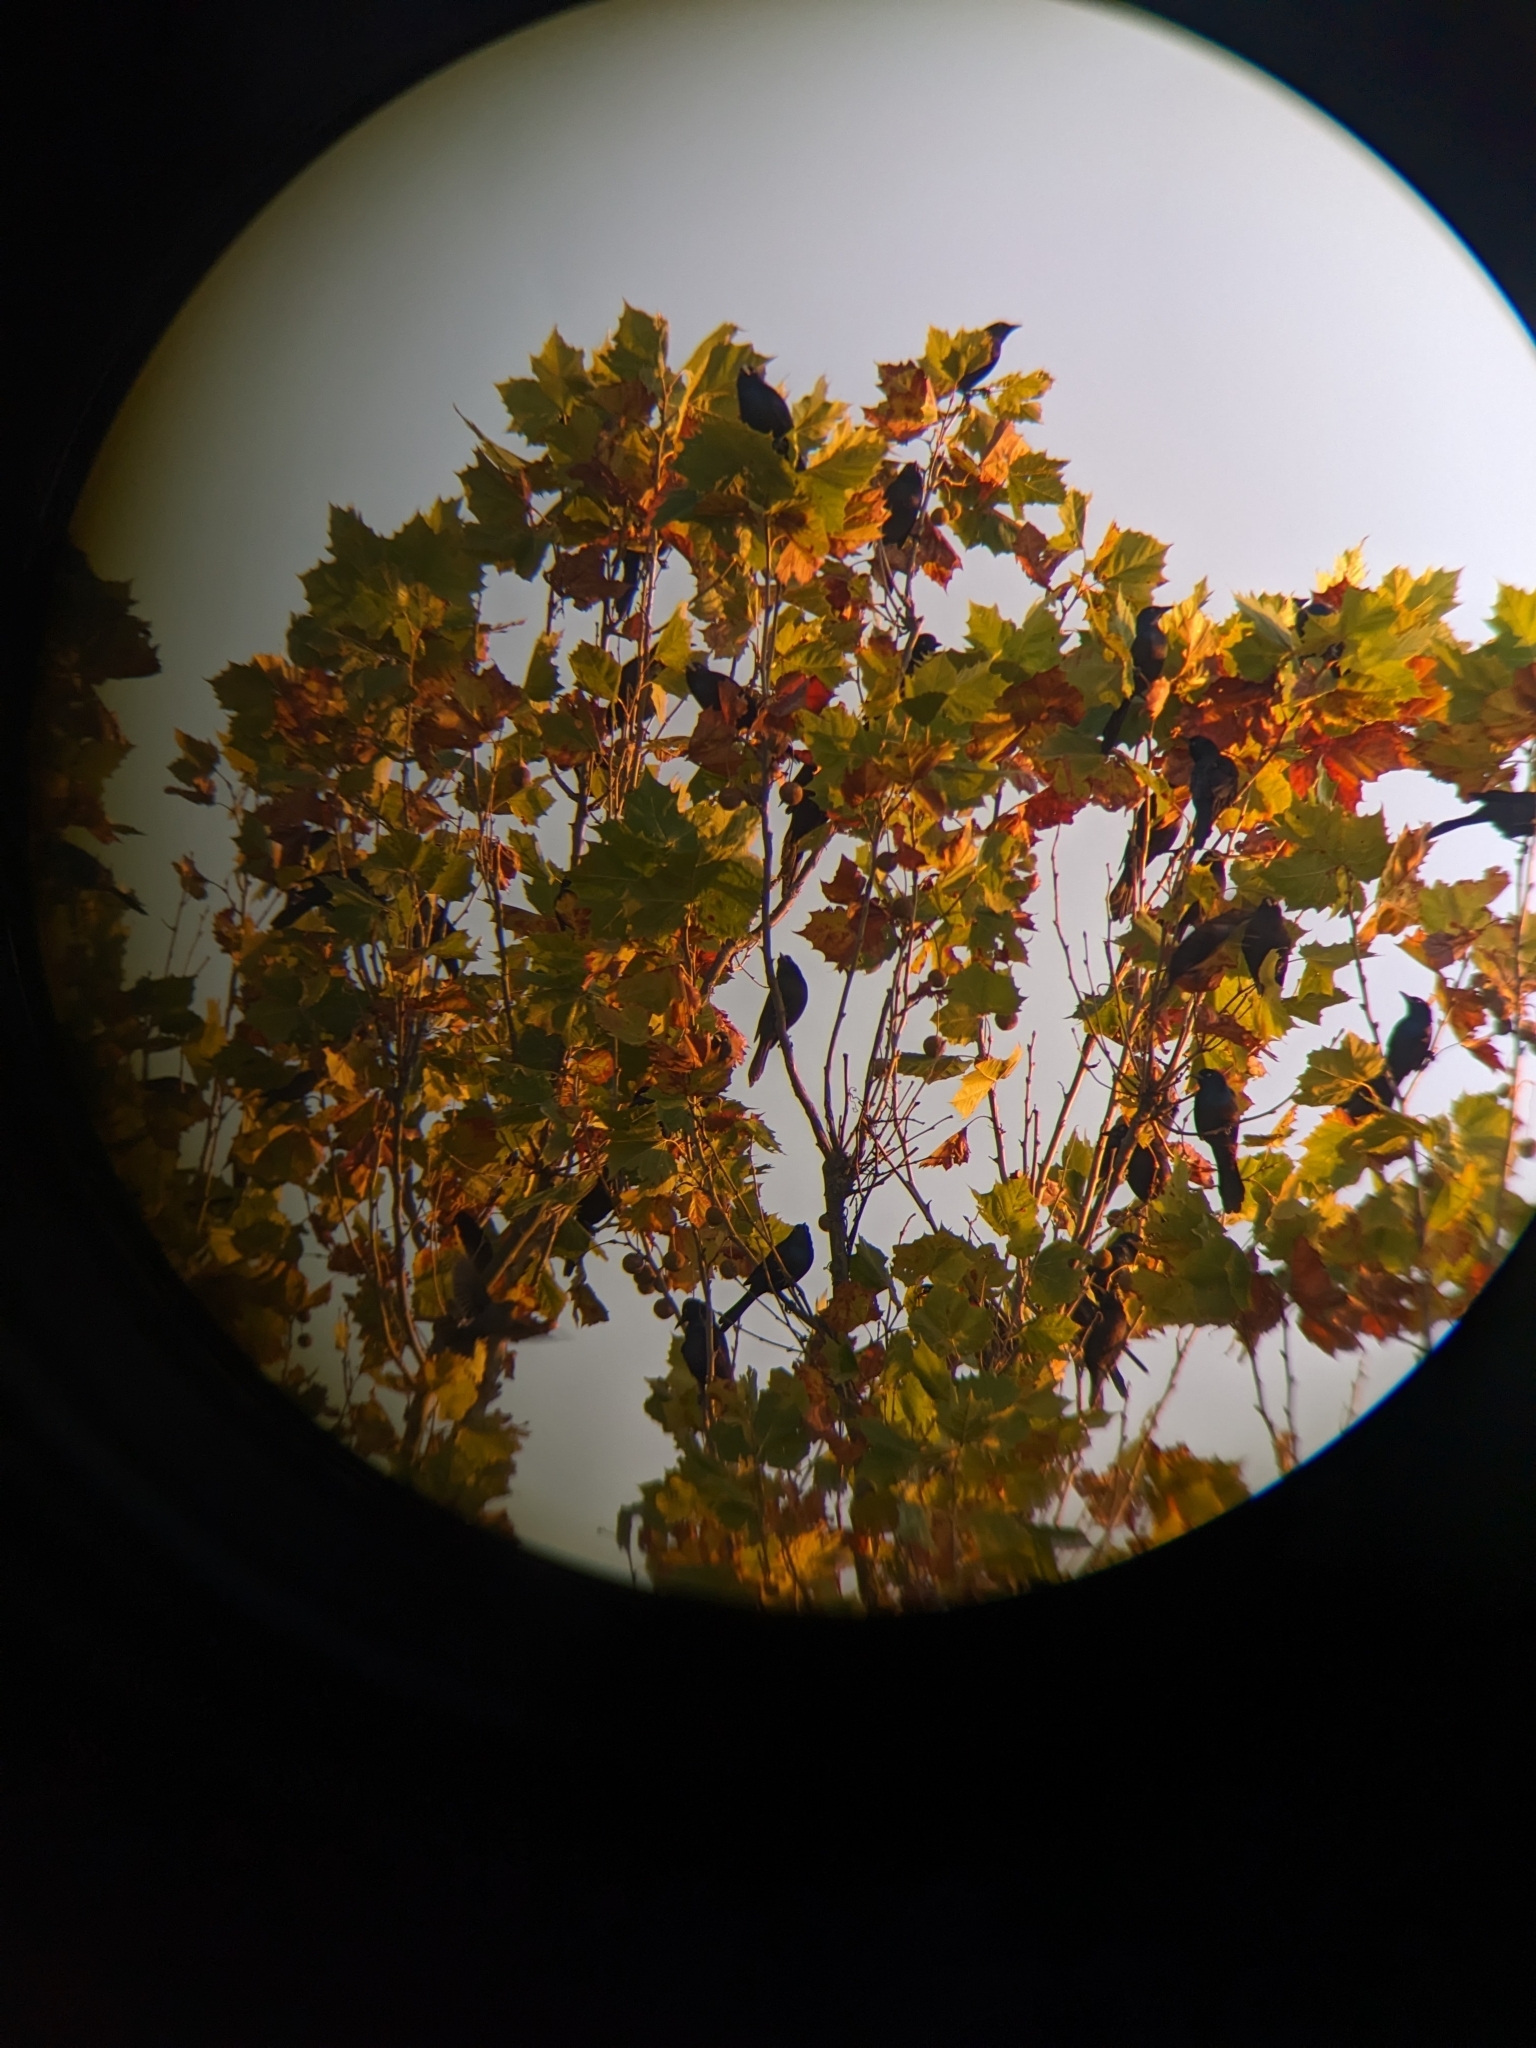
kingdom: Animalia
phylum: Chordata
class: Aves
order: Passeriformes
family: Icteridae
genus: Quiscalus
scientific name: Quiscalus quiscula
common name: Common grackle
